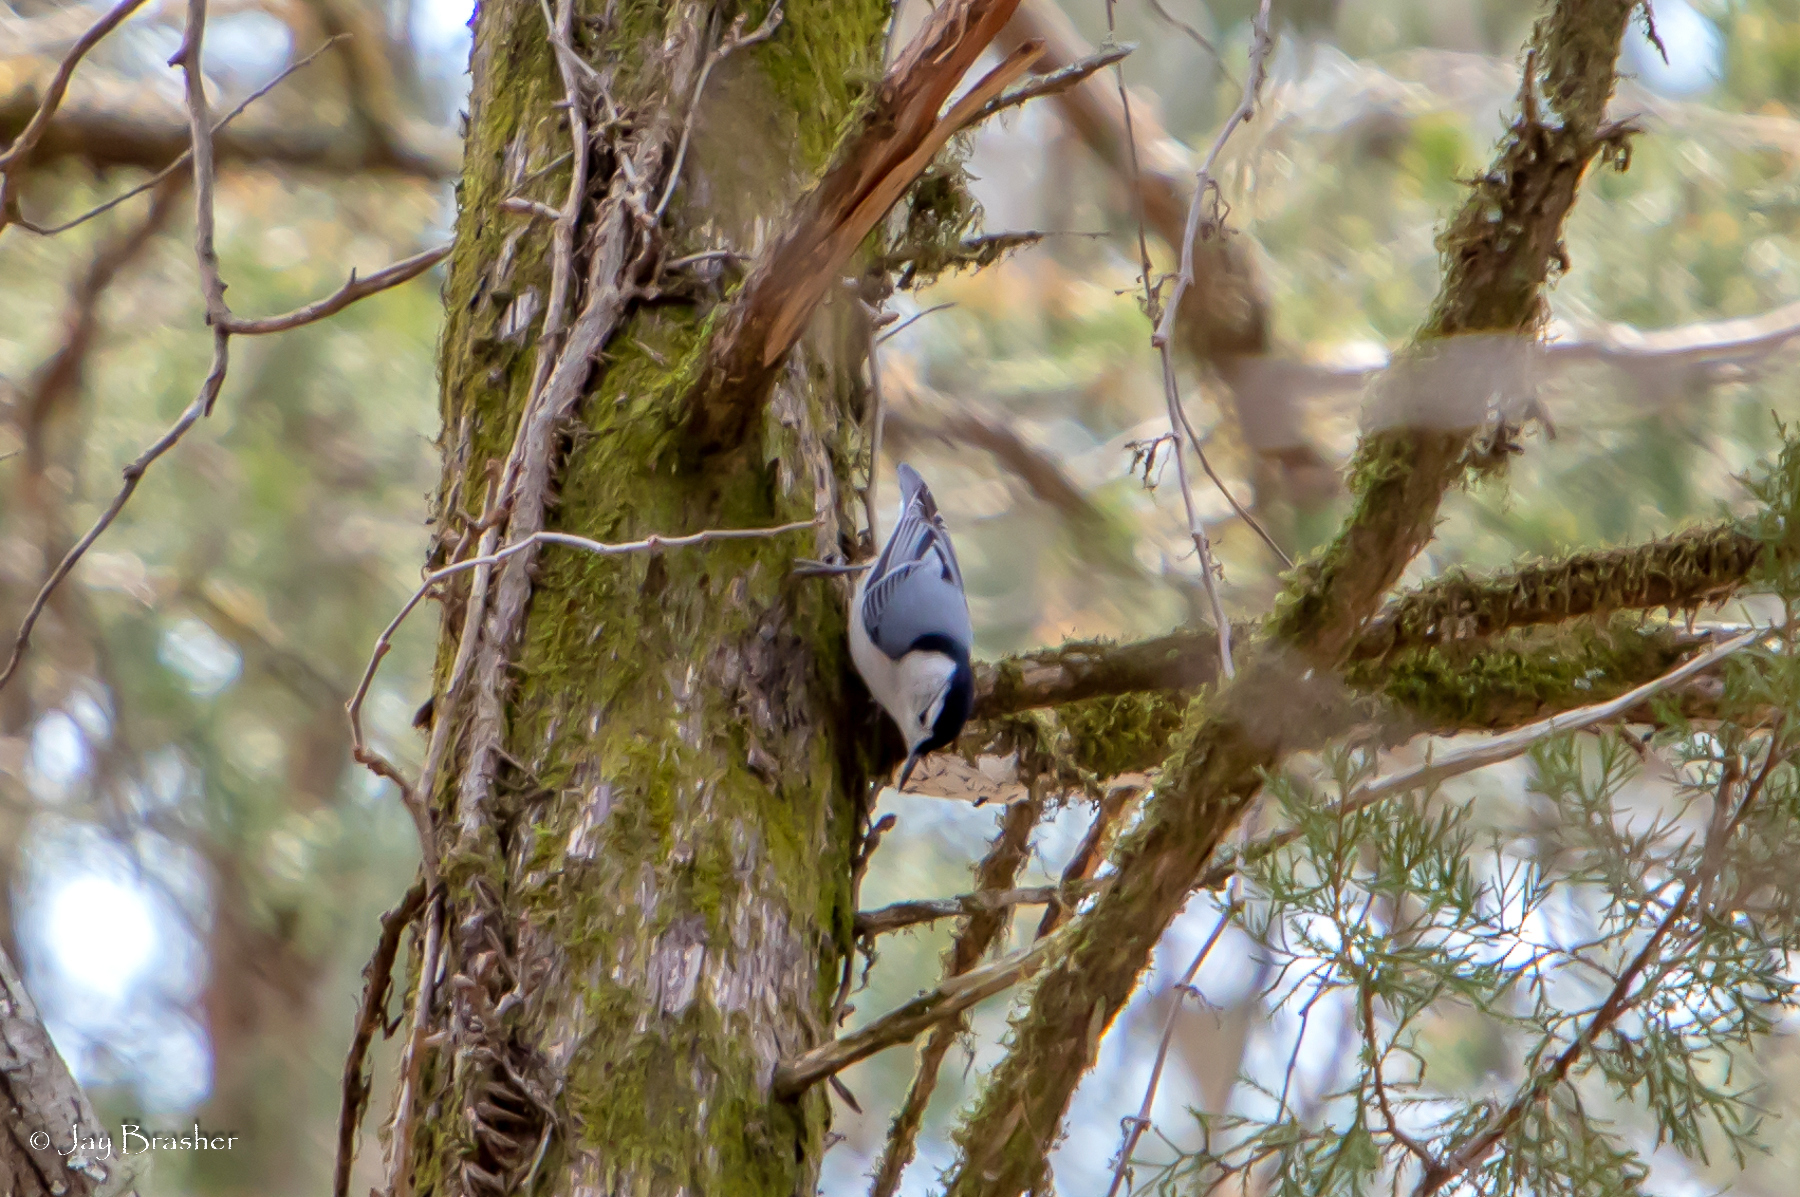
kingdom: Animalia
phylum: Chordata
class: Aves
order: Passeriformes
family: Sittidae
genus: Sitta
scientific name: Sitta carolinensis
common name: White-breasted nuthatch
